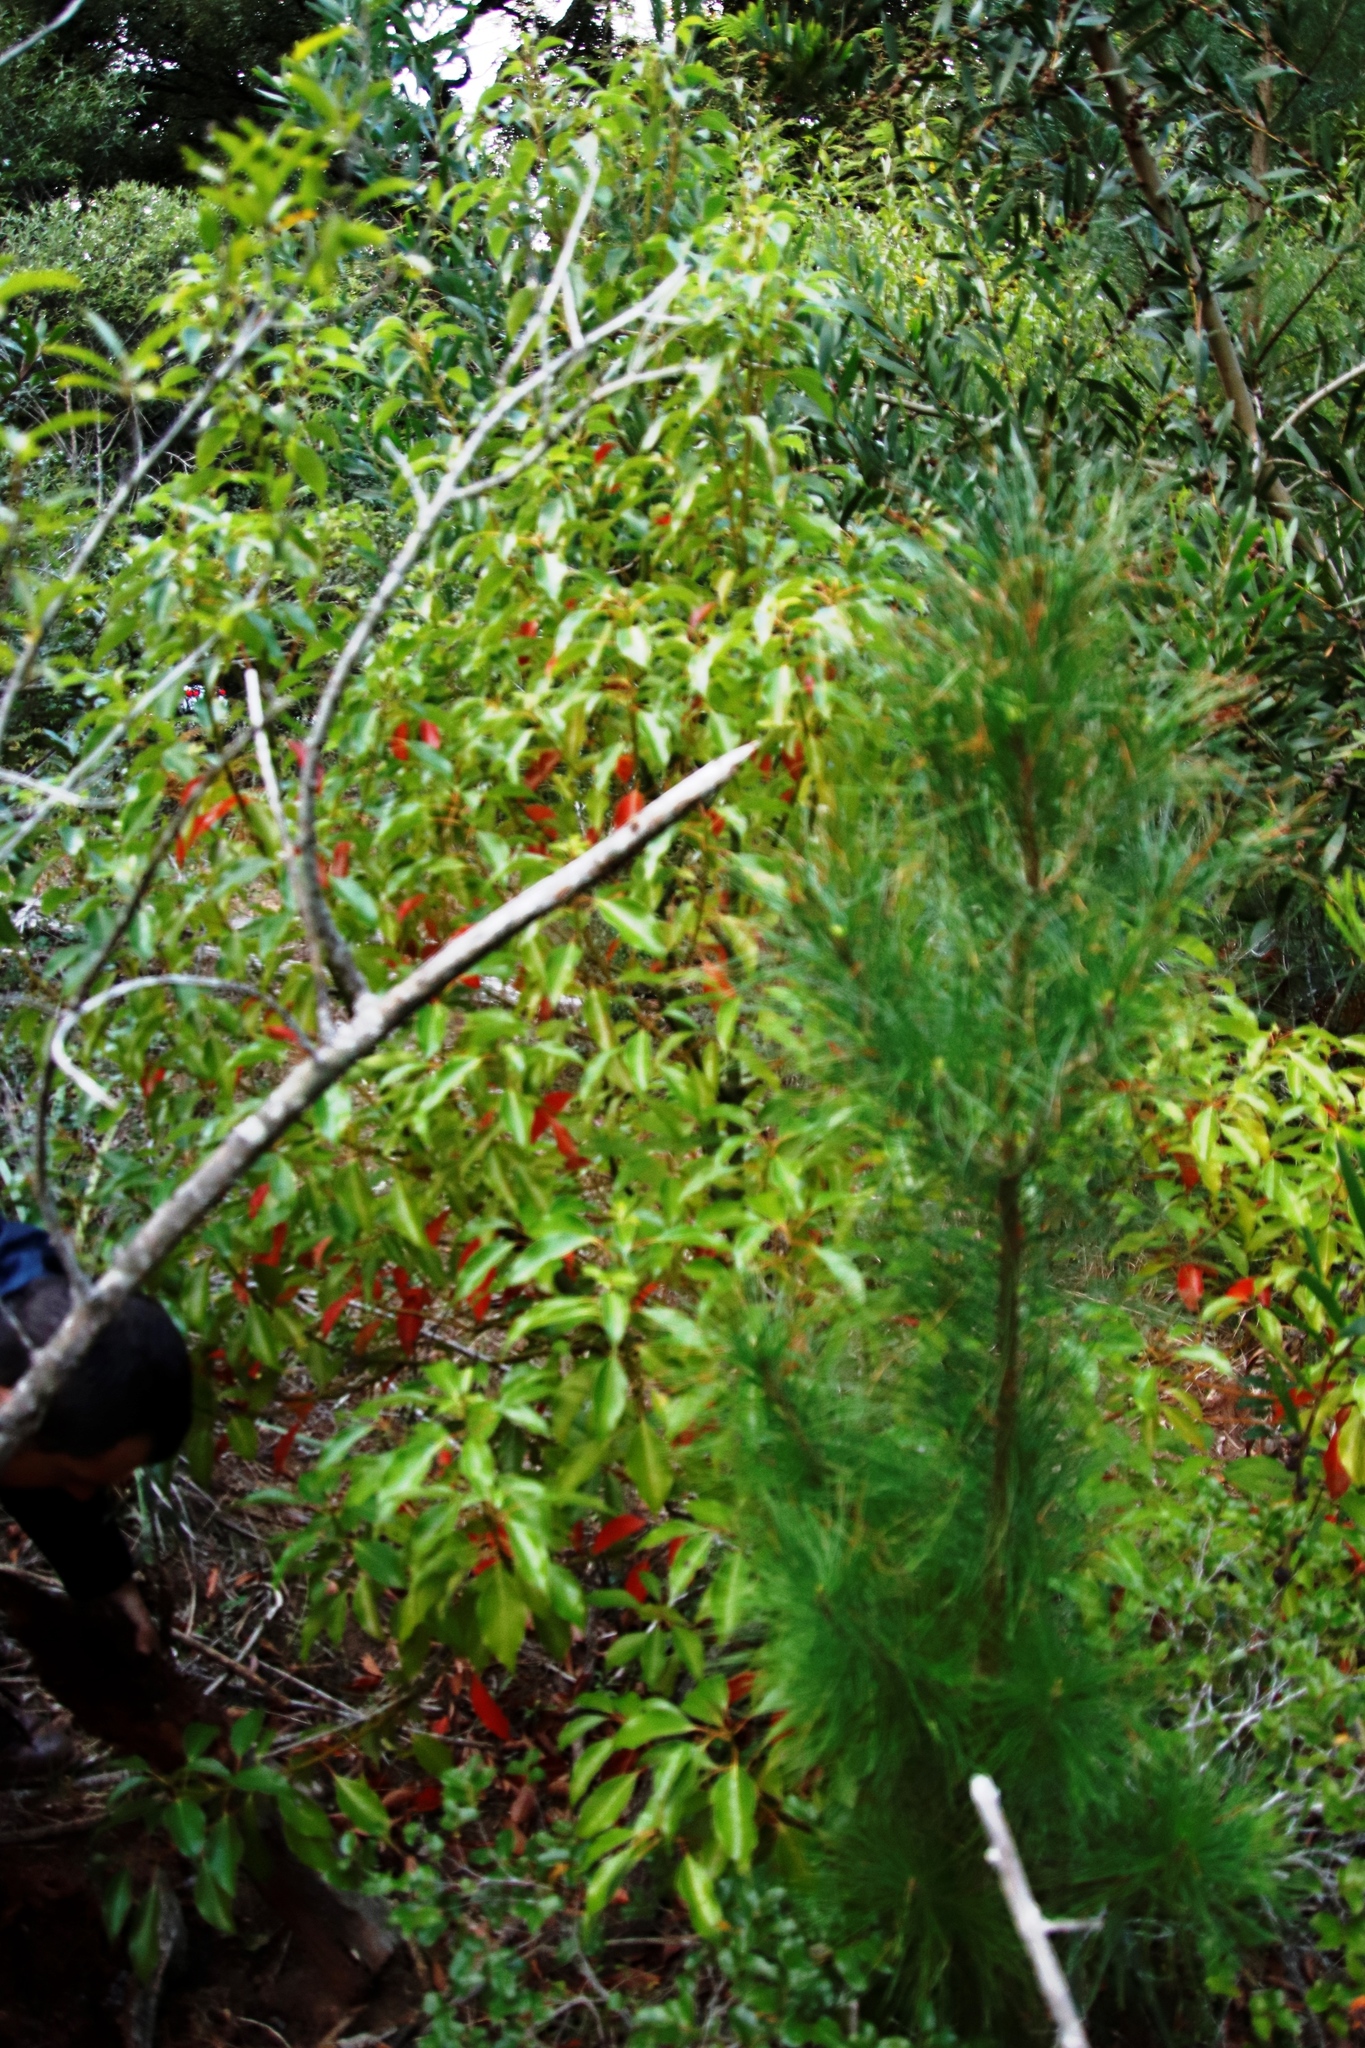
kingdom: Plantae
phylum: Tracheophyta
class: Magnoliopsida
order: Laurales
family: Lauraceae
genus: Cinnamomum
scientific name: Cinnamomum camphora
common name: Camphortree
